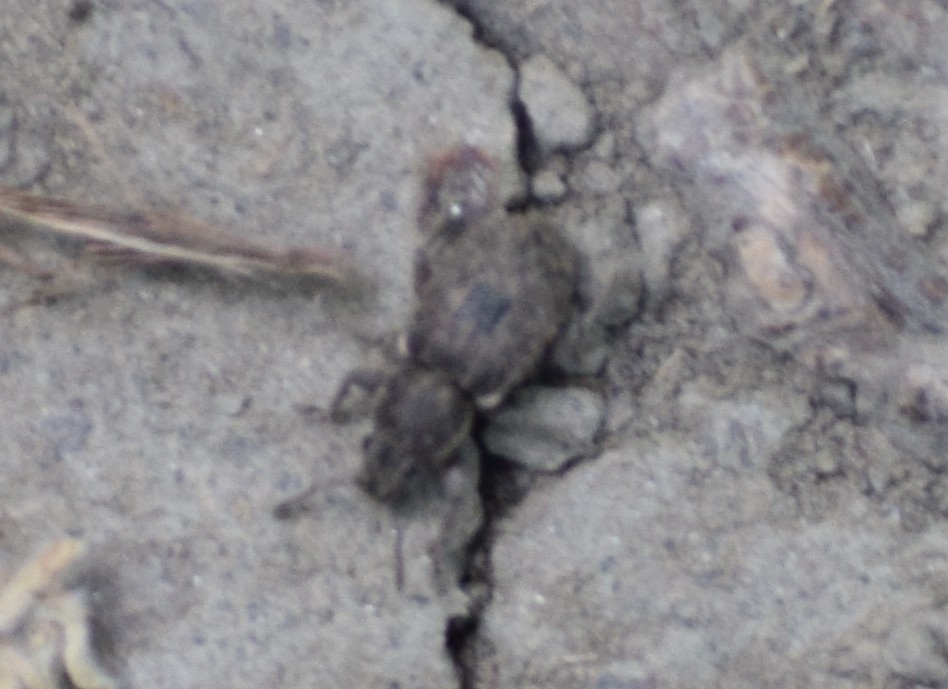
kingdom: Animalia
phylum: Arthropoda
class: Insecta
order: Coleoptera
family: Curculionidae
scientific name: Curculionidae
